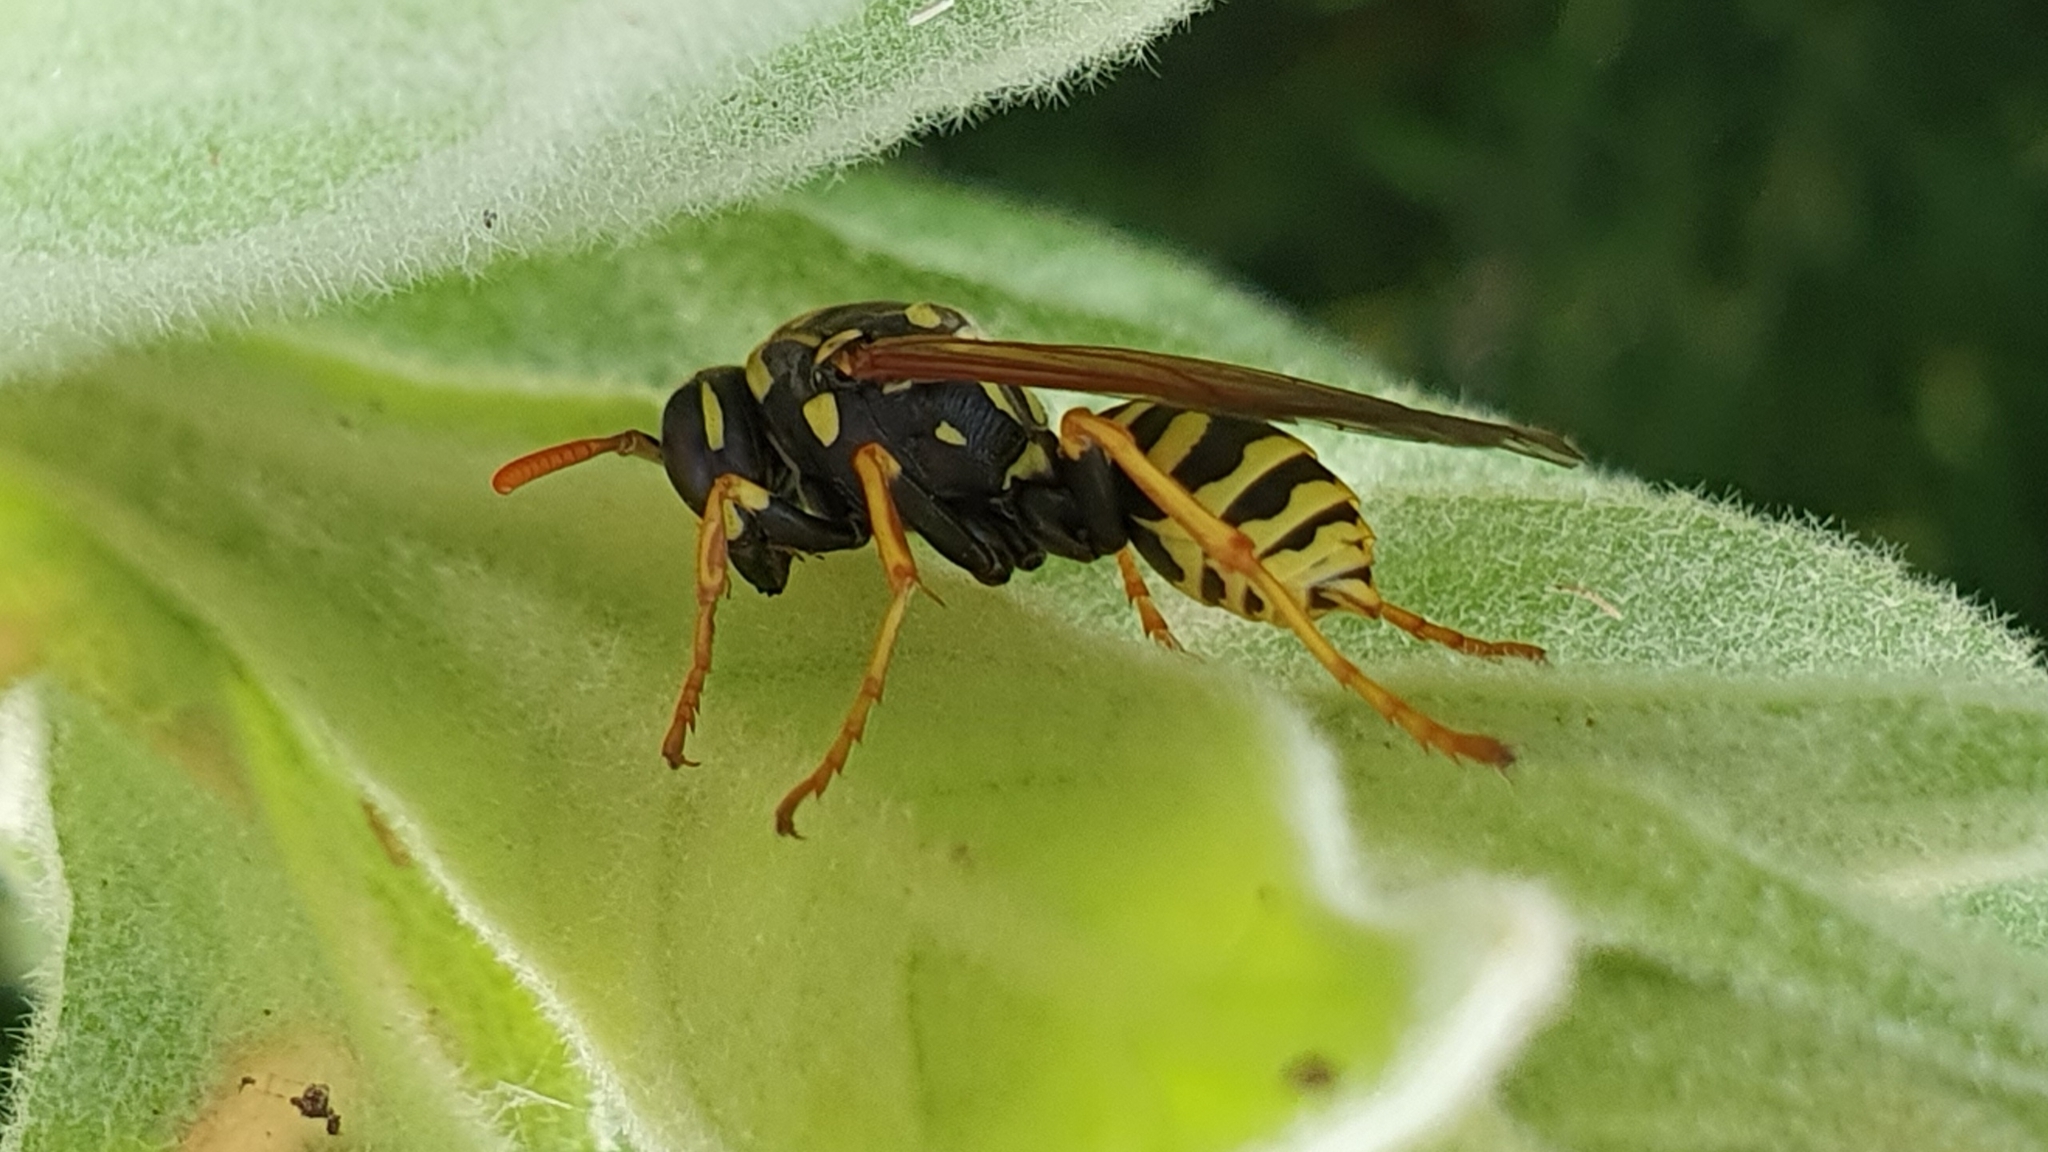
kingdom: Animalia
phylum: Arthropoda
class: Insecta
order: Hymenoptera
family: Eumenidae
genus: Polistes
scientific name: Polistes dominula
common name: Paper wasp
